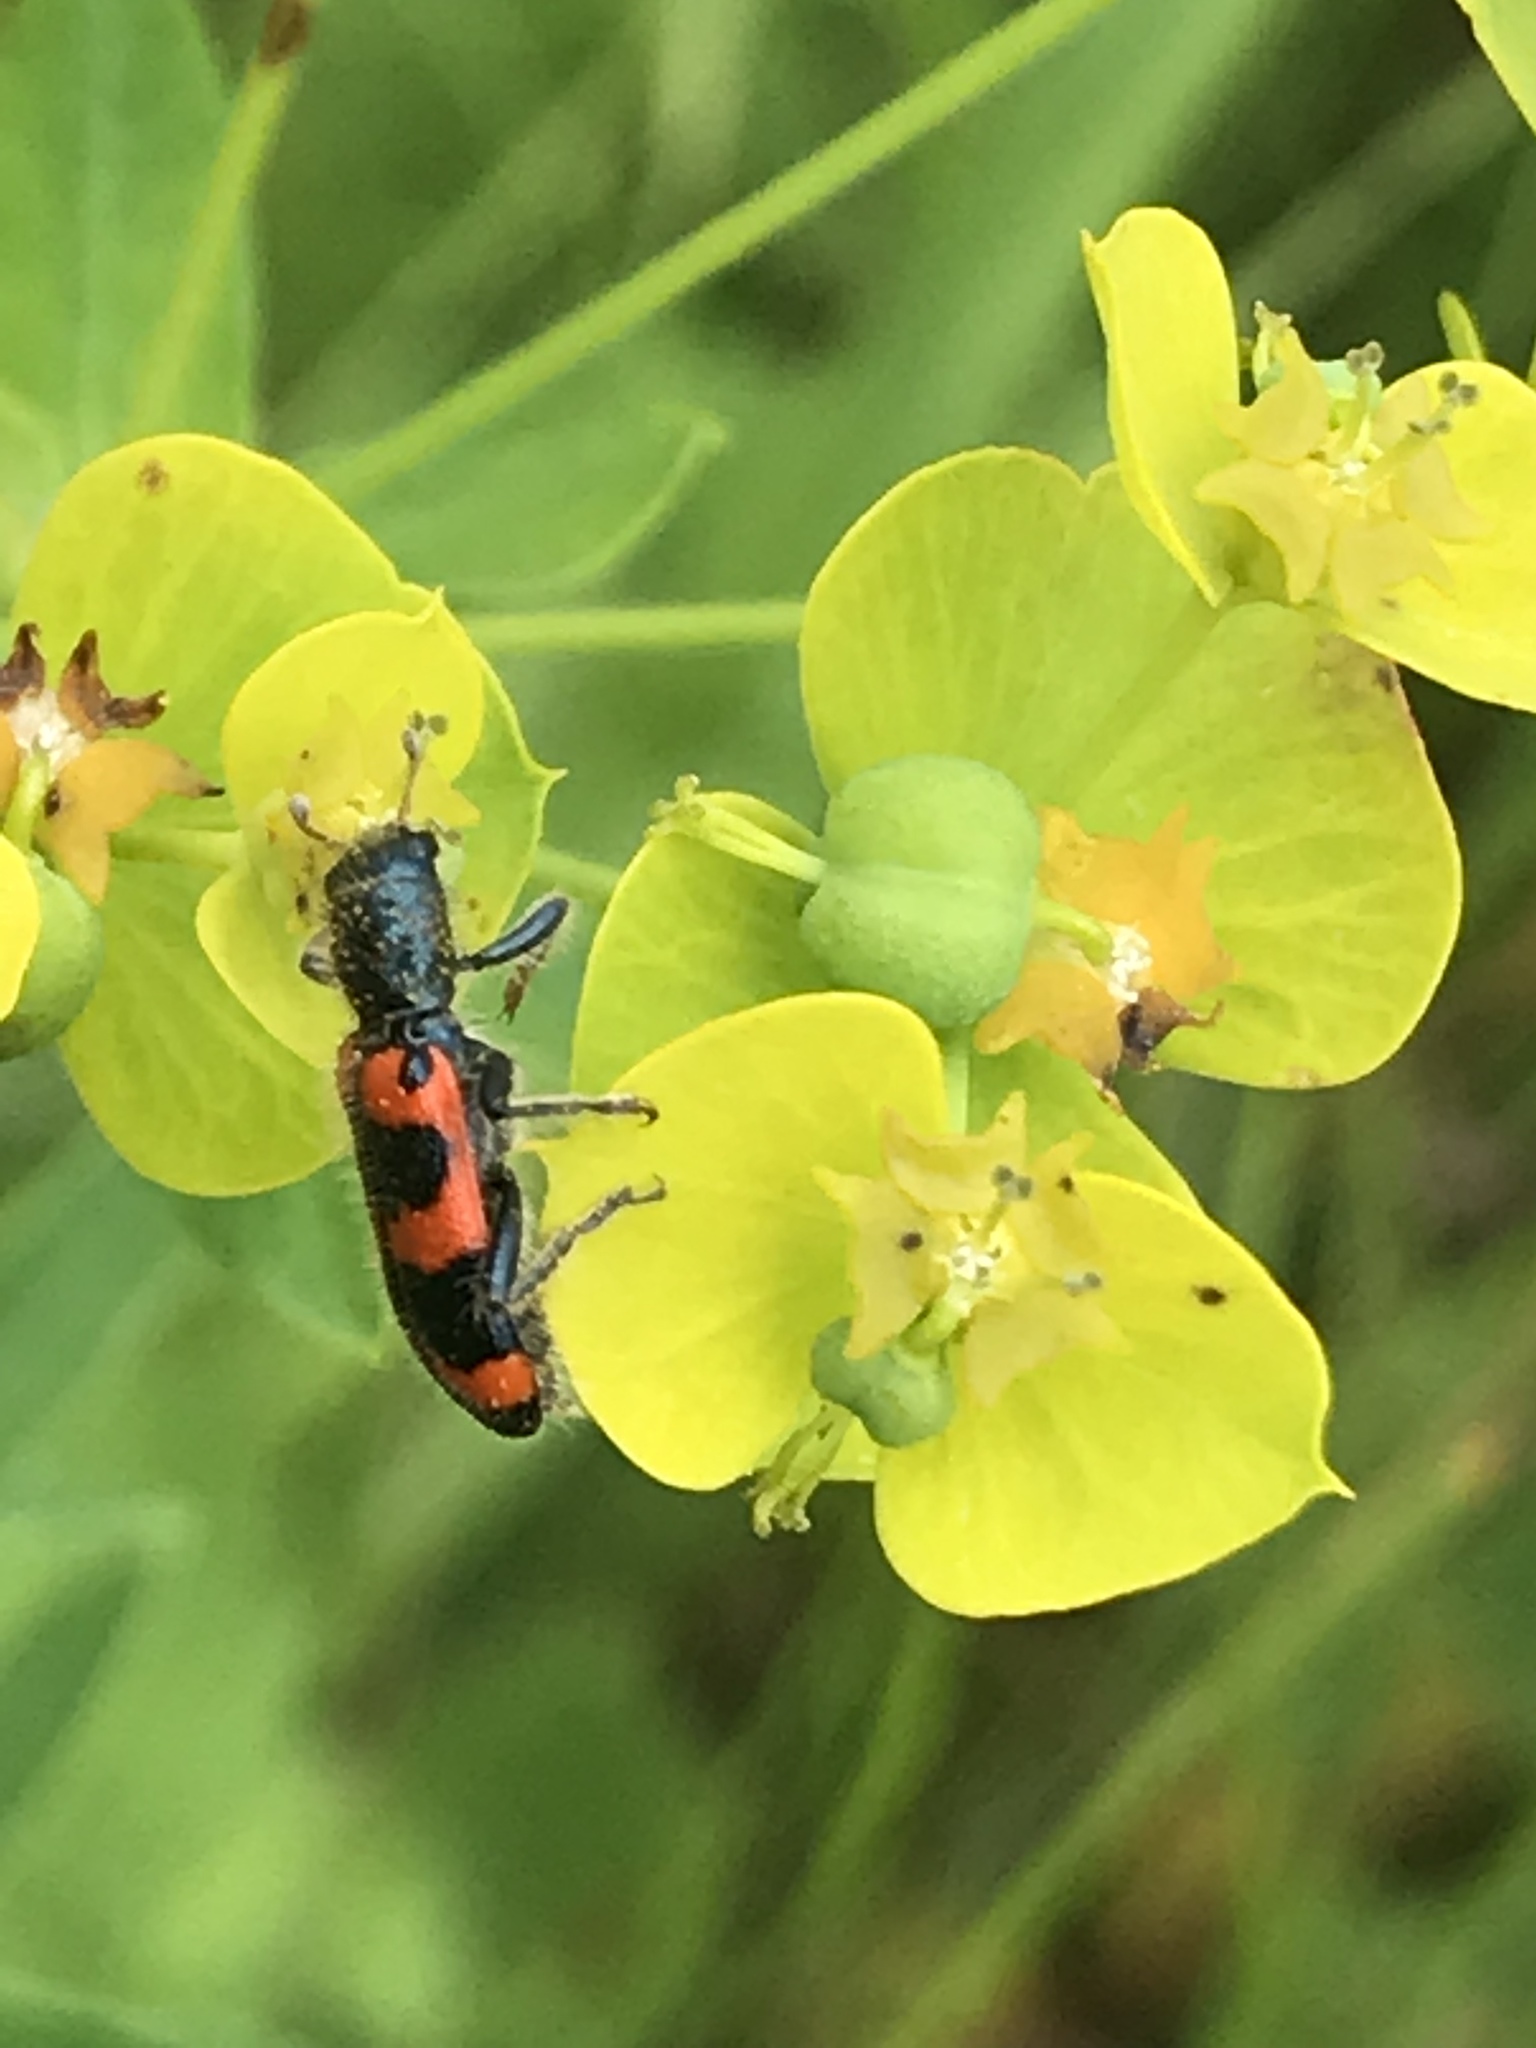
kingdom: Animalia
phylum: Arthropoda
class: Insecta
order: Coleoptera
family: Cleridae
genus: Trichodes
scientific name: Trichodes nutalli
